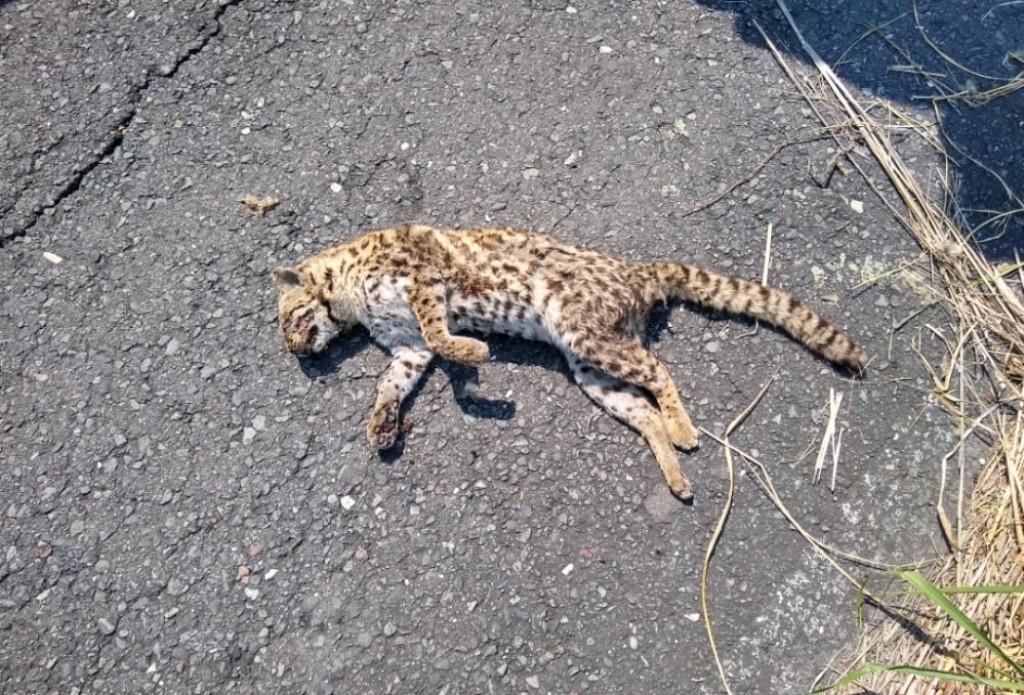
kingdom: Animalia
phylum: Chordata
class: Mammalia
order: Carnivora
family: Felidae
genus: Leopardus
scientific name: Leopardus wiedii
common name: Margay
